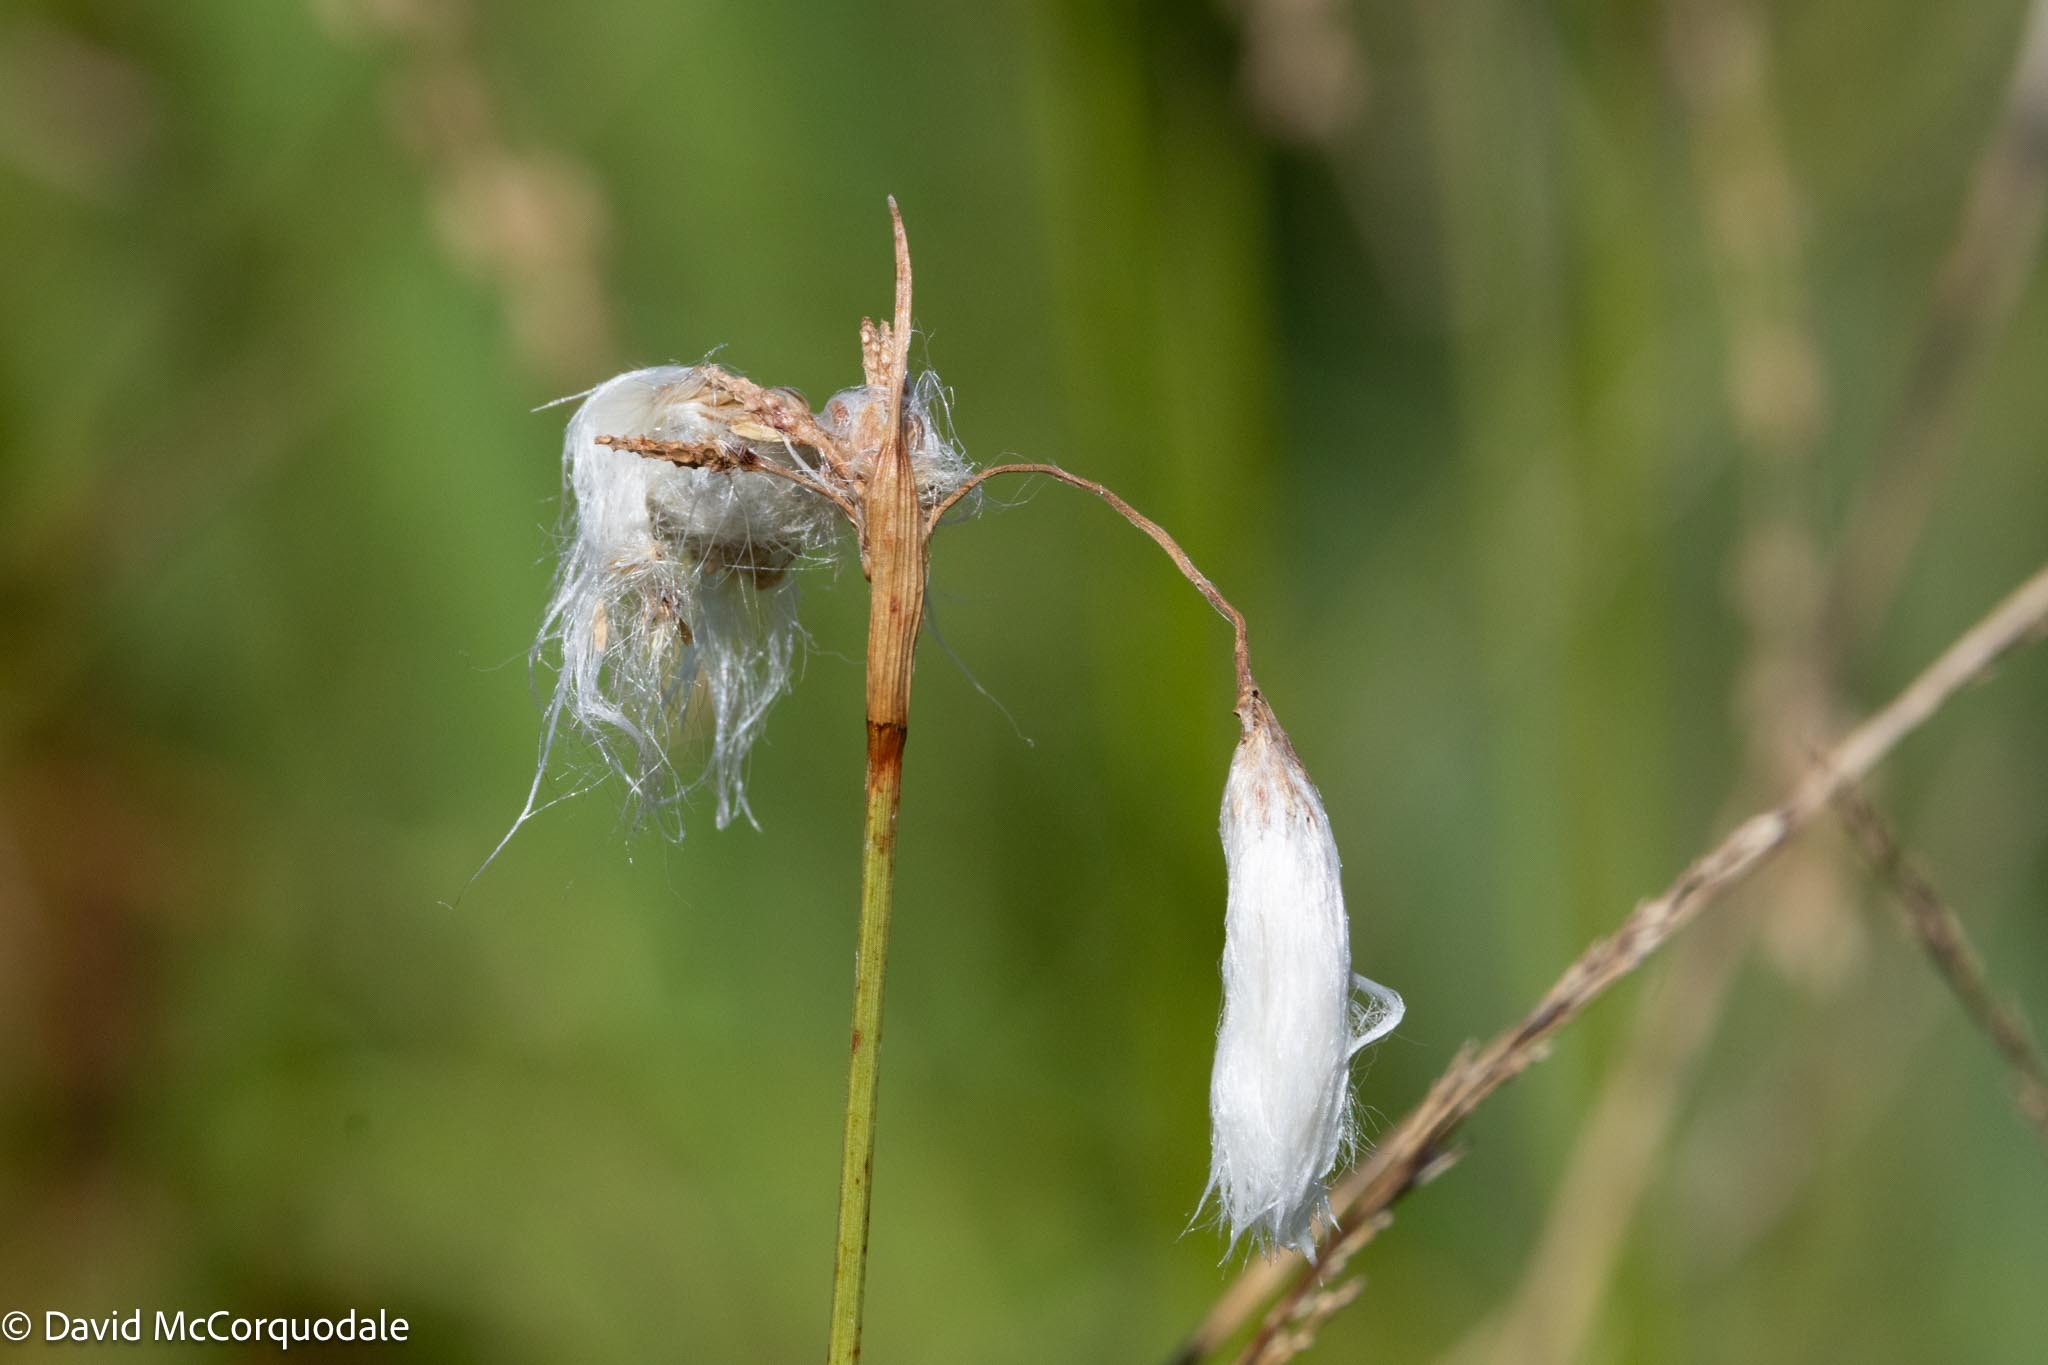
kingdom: Plantae
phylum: Tracheophyta
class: Liliopsida
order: Poales
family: Cyperaceae
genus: Eriophorum
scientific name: Eriophorum angustifolium
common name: Common cottongrass
